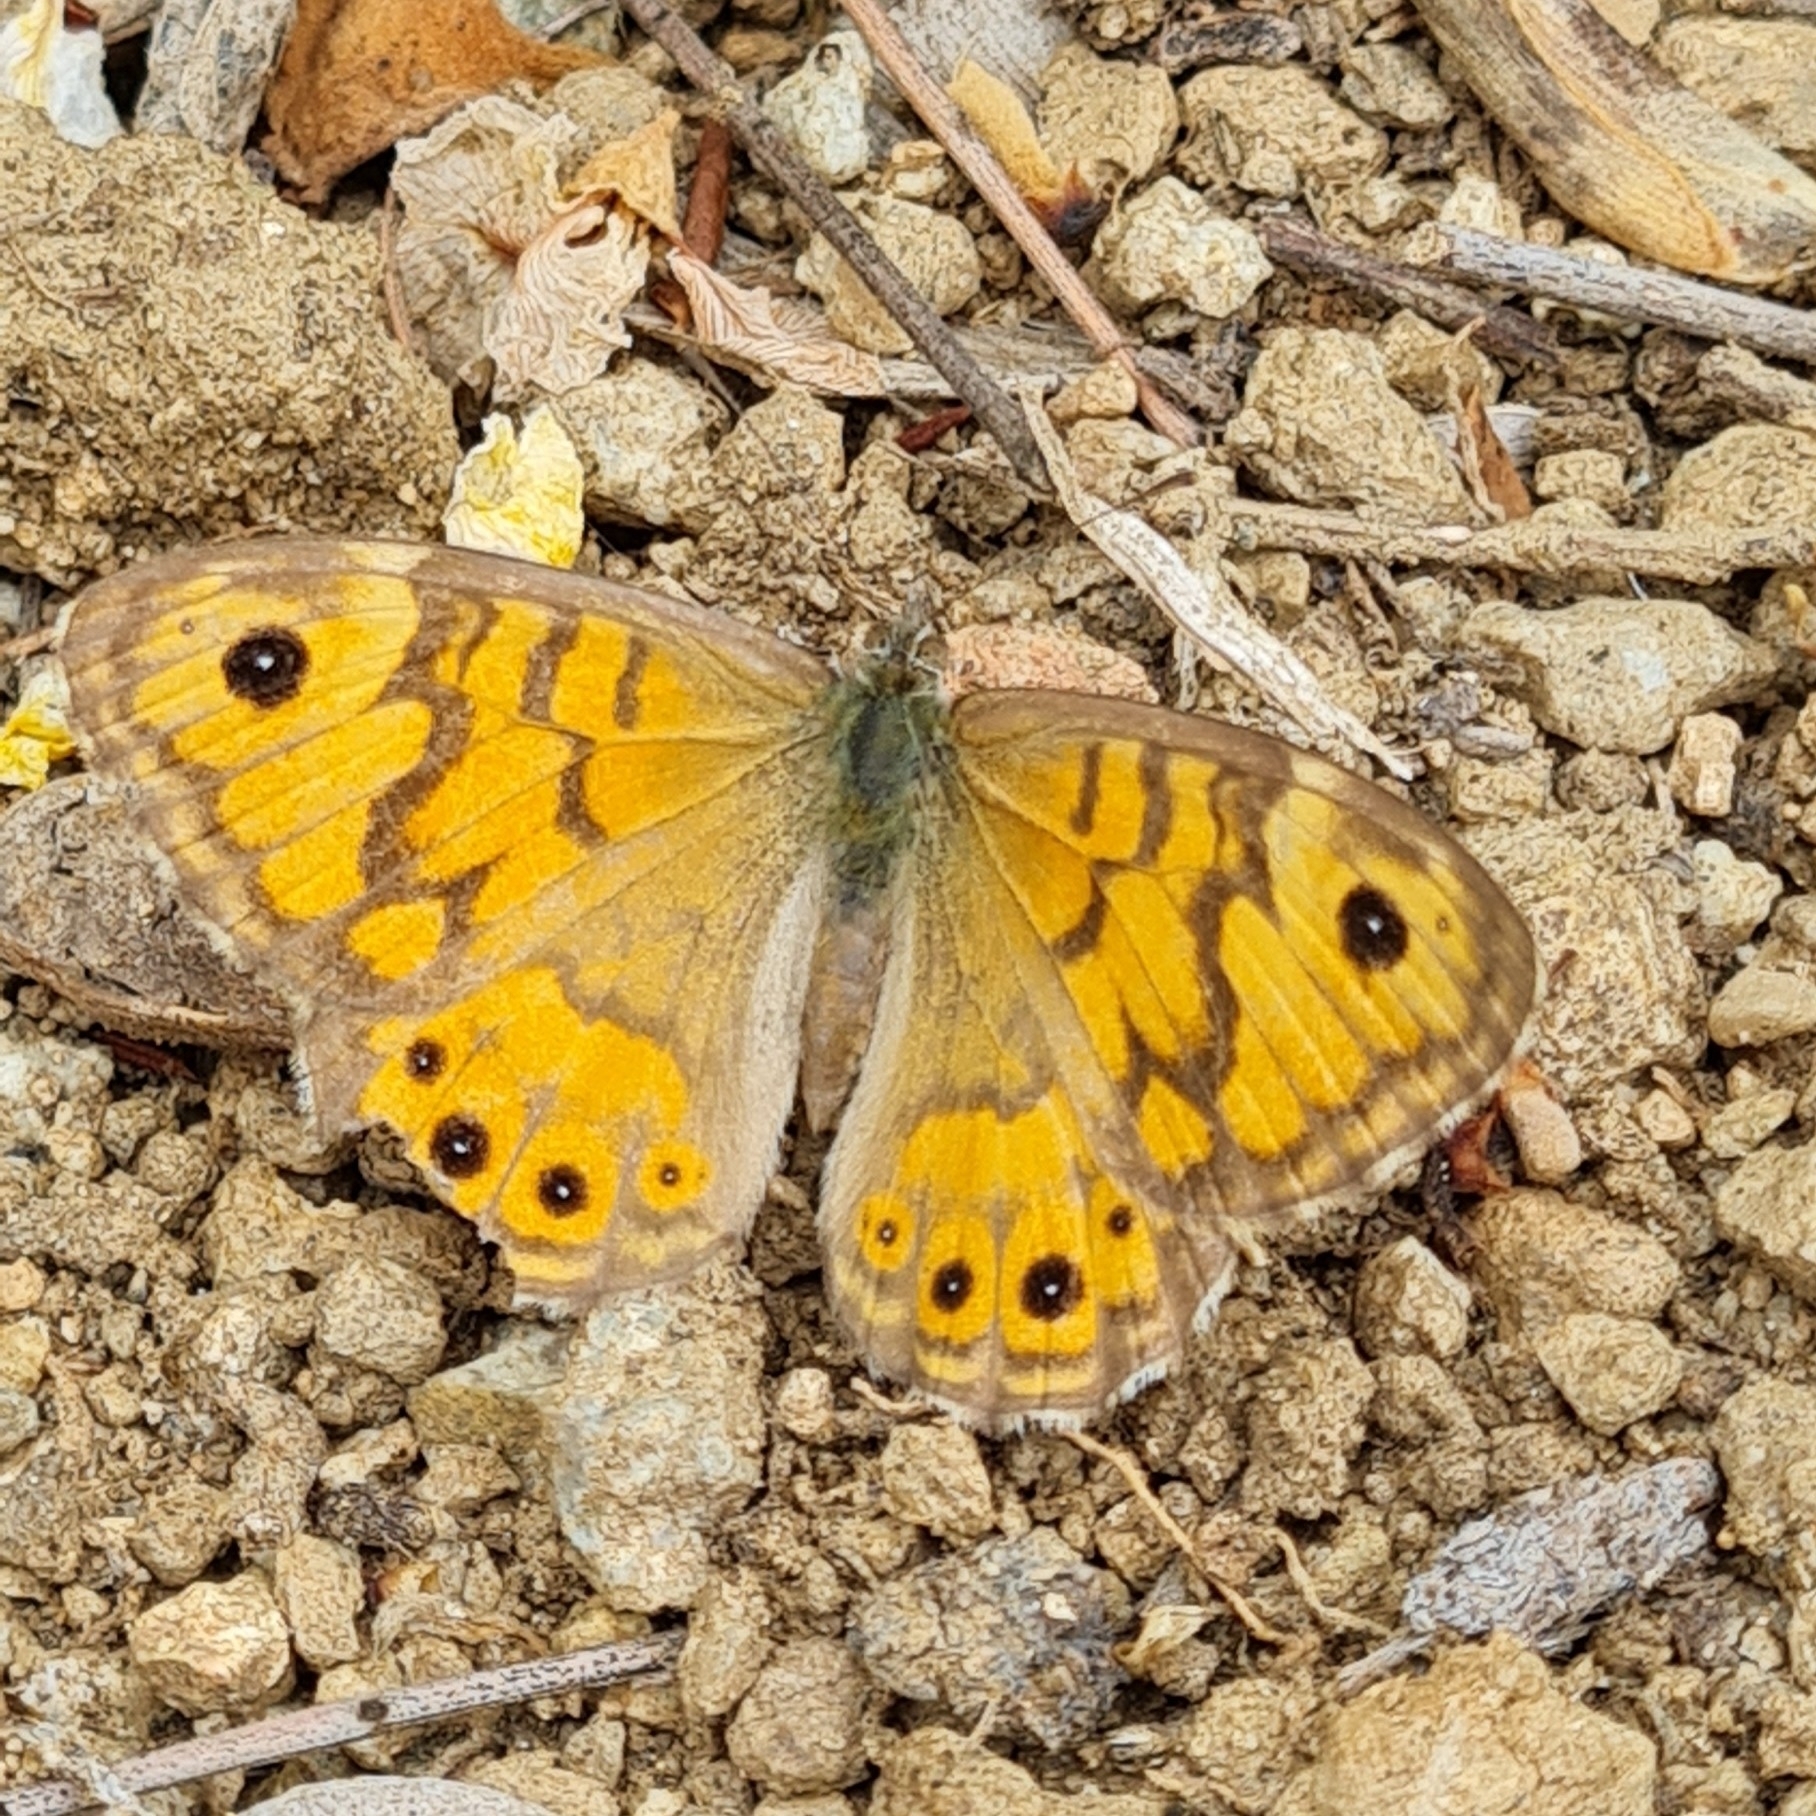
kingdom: Animalia
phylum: Arthropoda
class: Insecta
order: Lepidoptera
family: Nymphalidae
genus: Pararge
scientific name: Pararge Lasiommata megera
